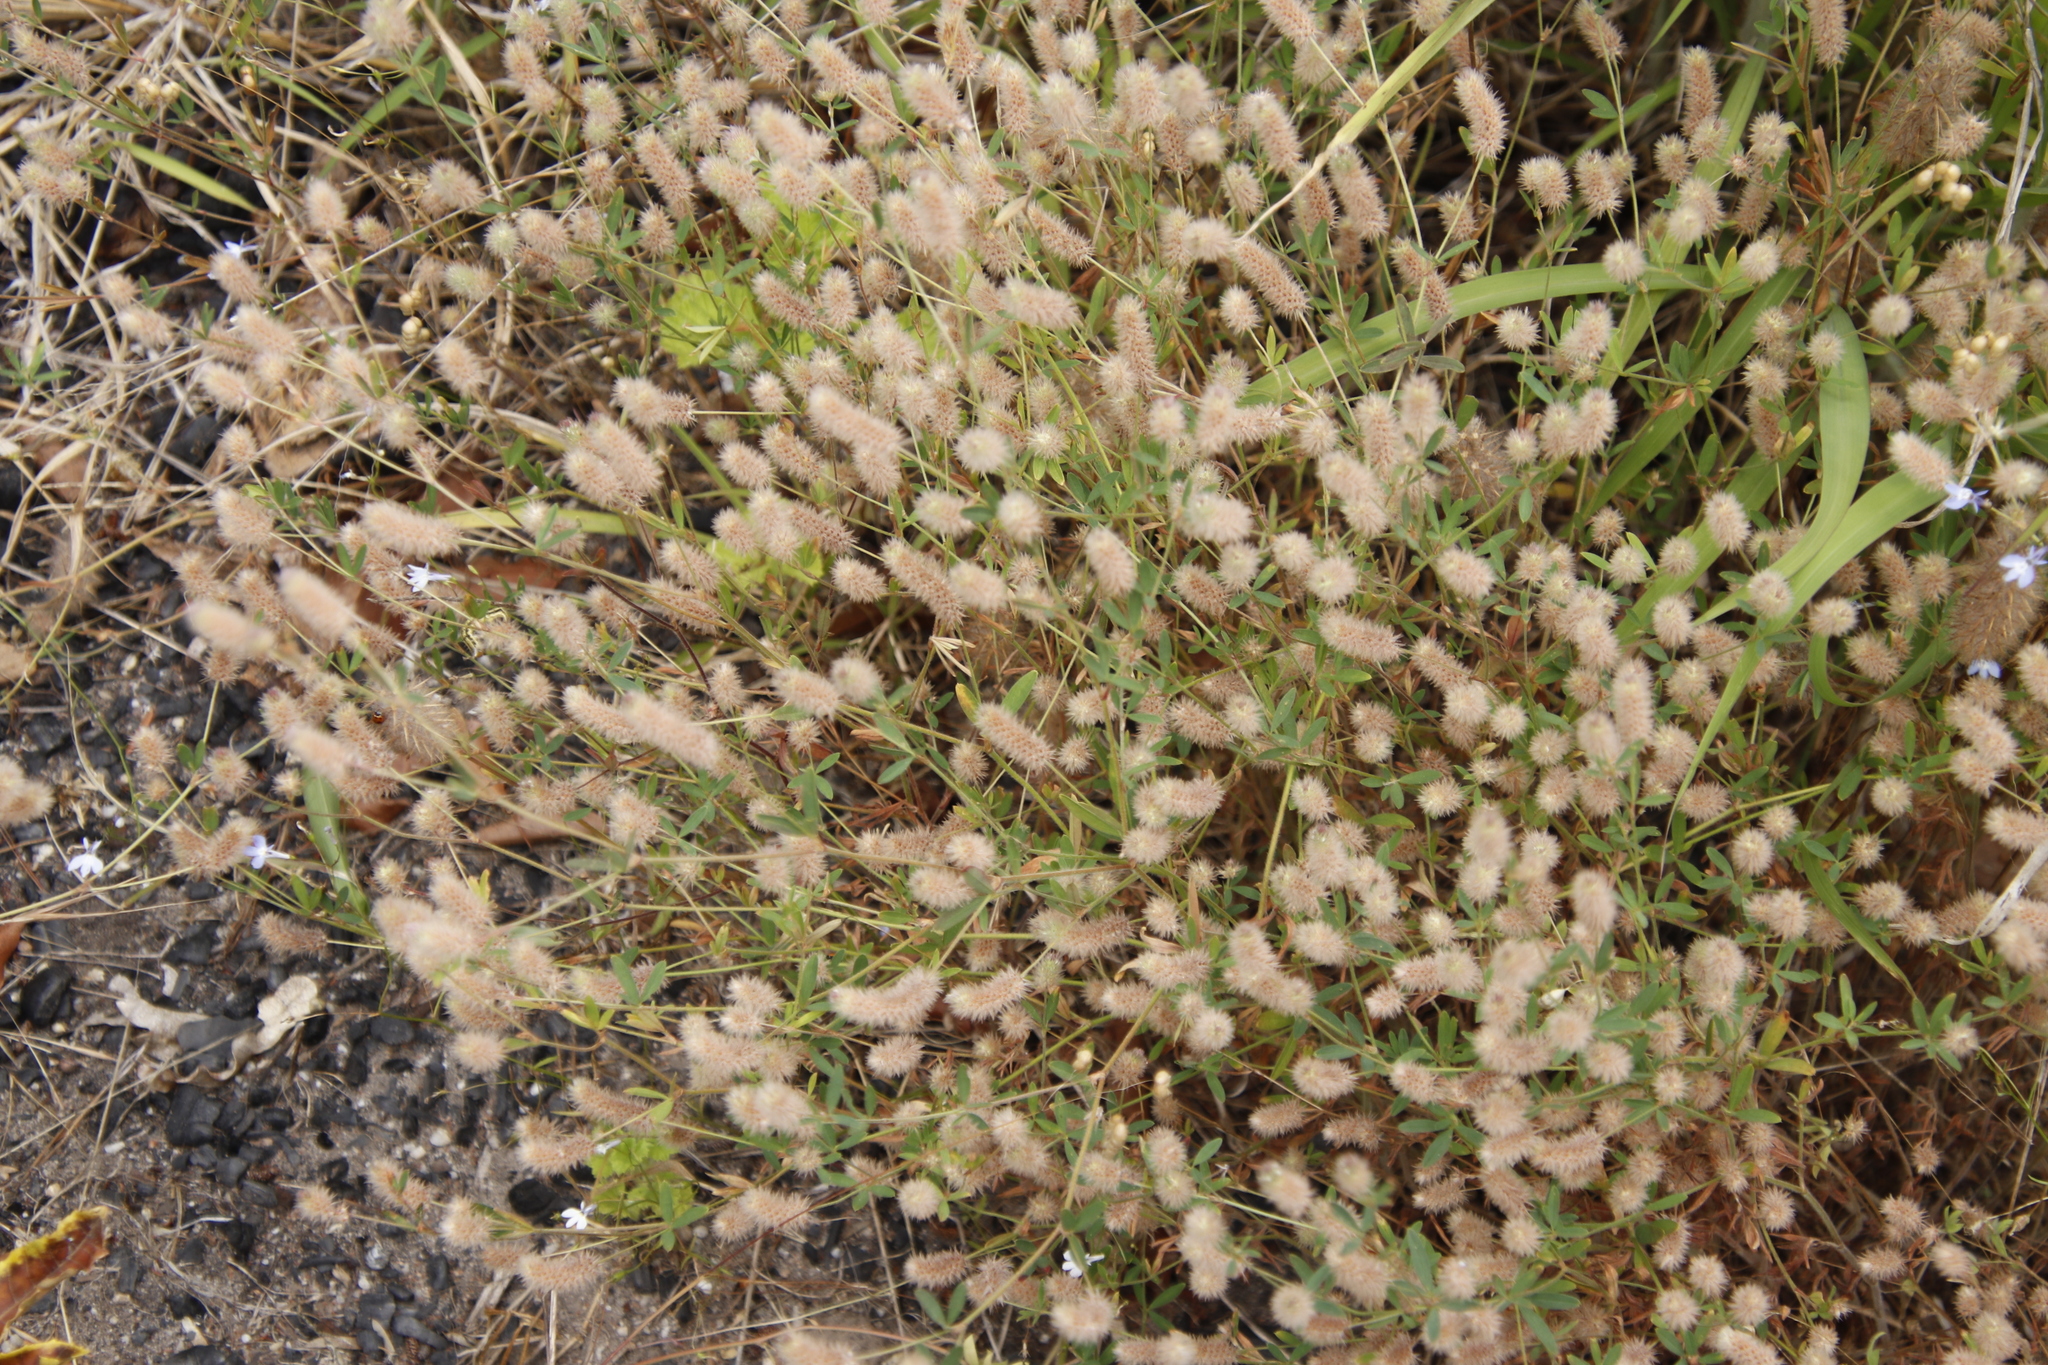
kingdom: Plantae
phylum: Tracheophyta
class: Magnoliopsida
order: Fabales
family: Fabaceae
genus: Trifolium
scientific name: Trifolium arvense
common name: Hare's-foot clover
